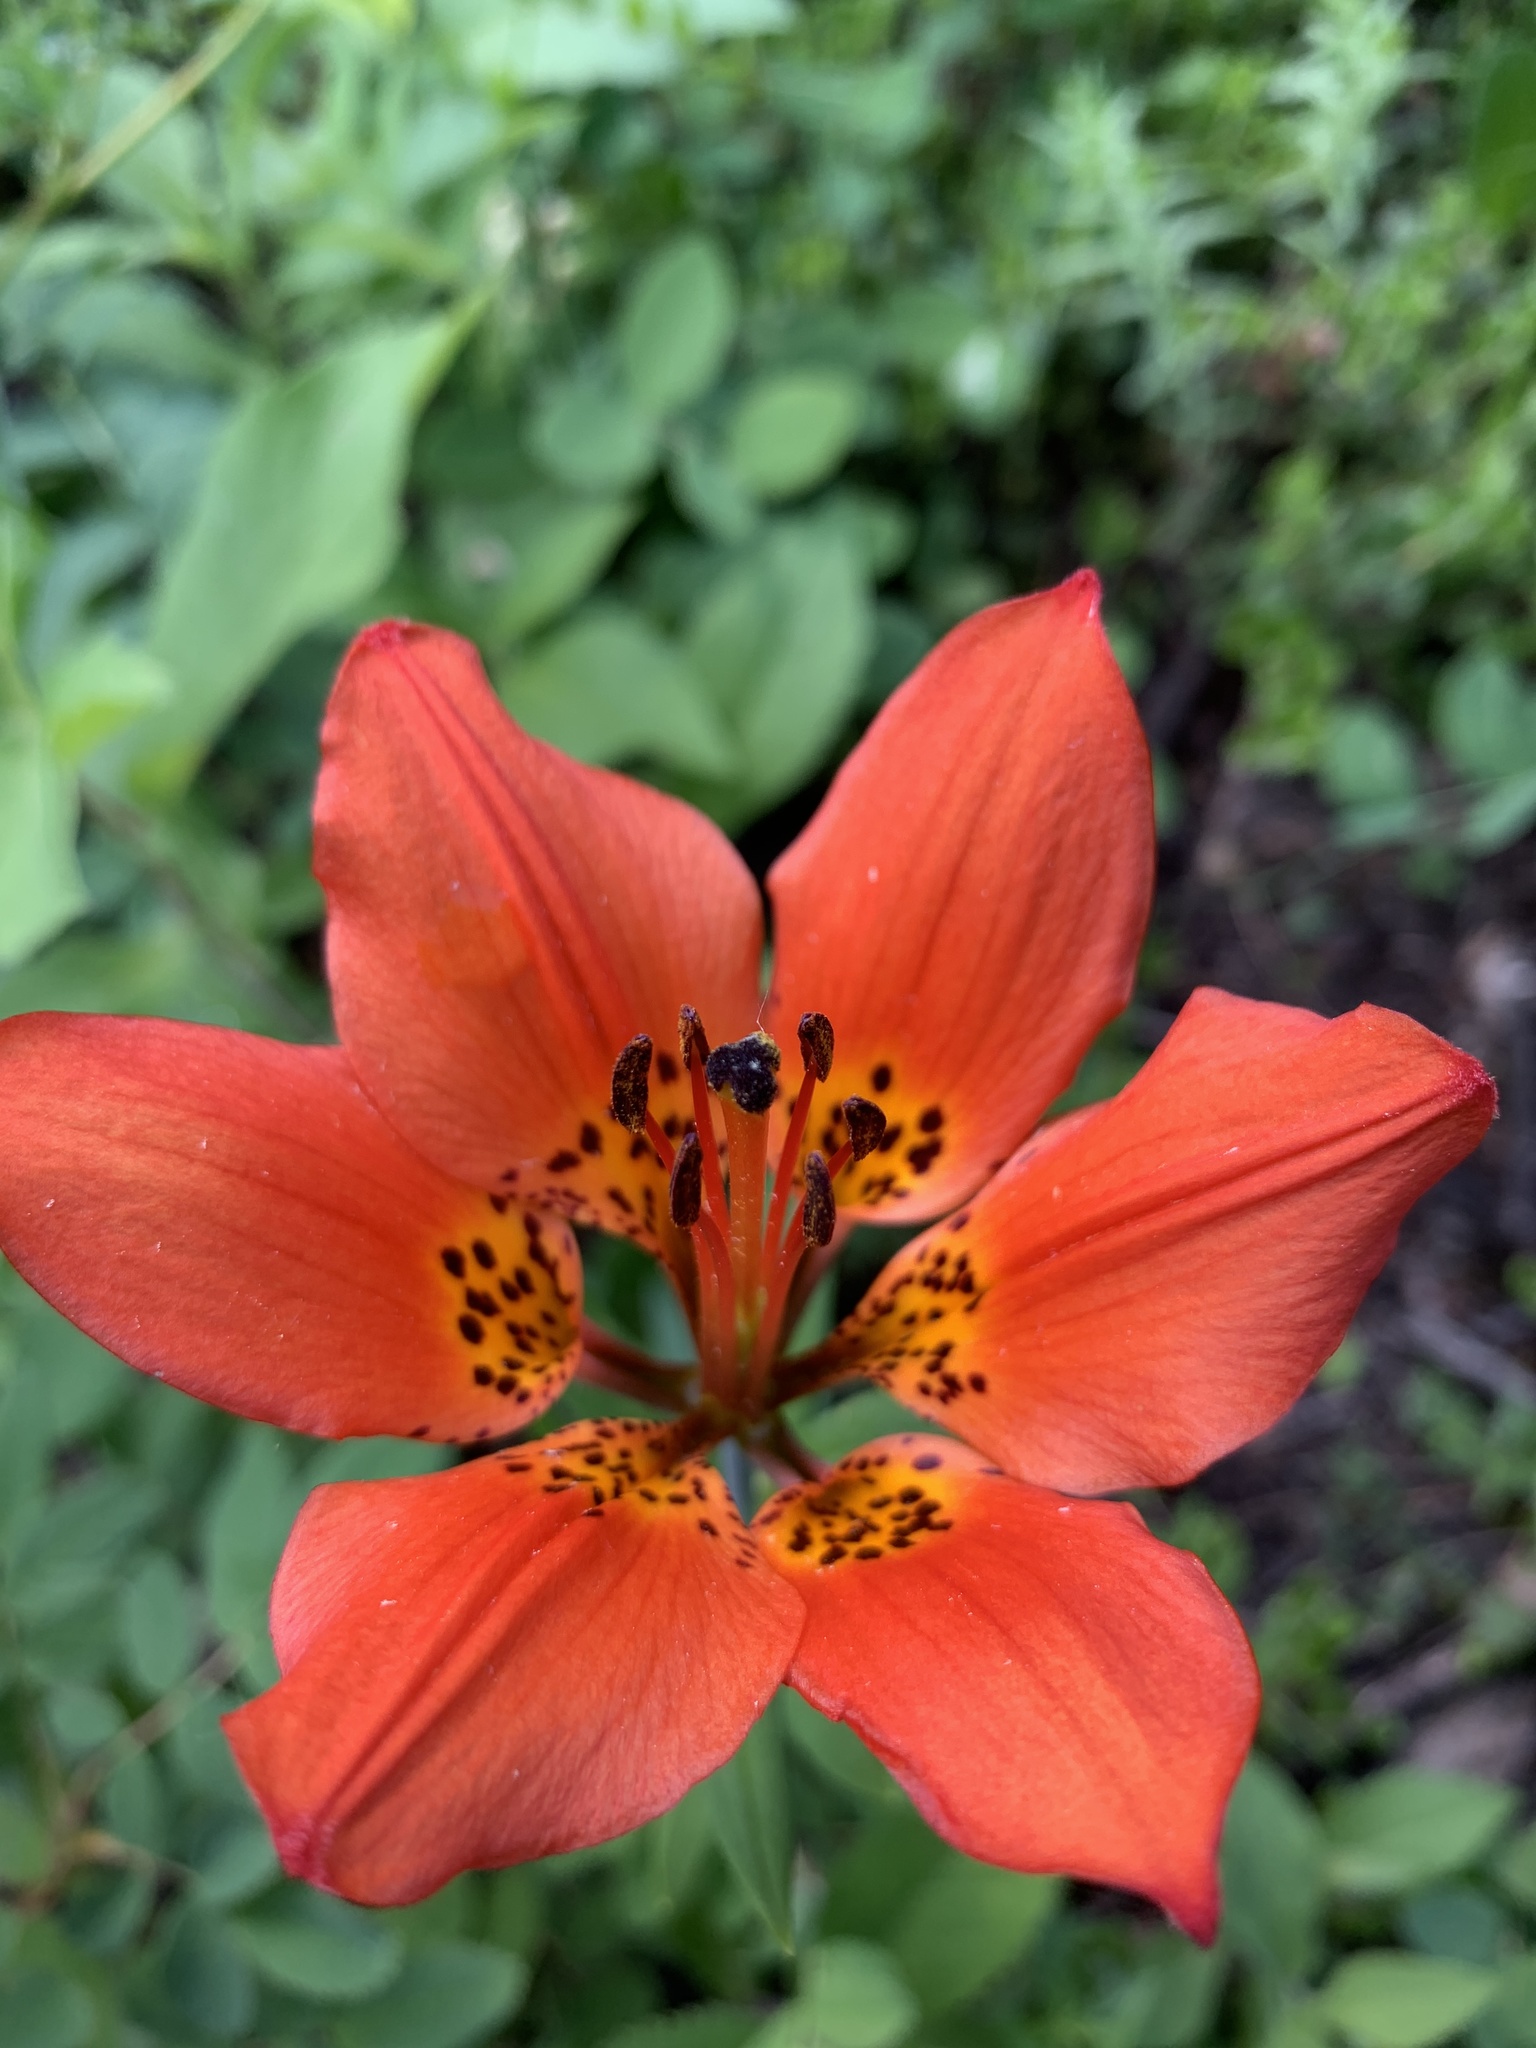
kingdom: Plantae
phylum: Tracheophyta
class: Liliopsida
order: Liliales
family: Liliaceae
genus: Lilium
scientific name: Lilium philadelphicum
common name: Red lily
